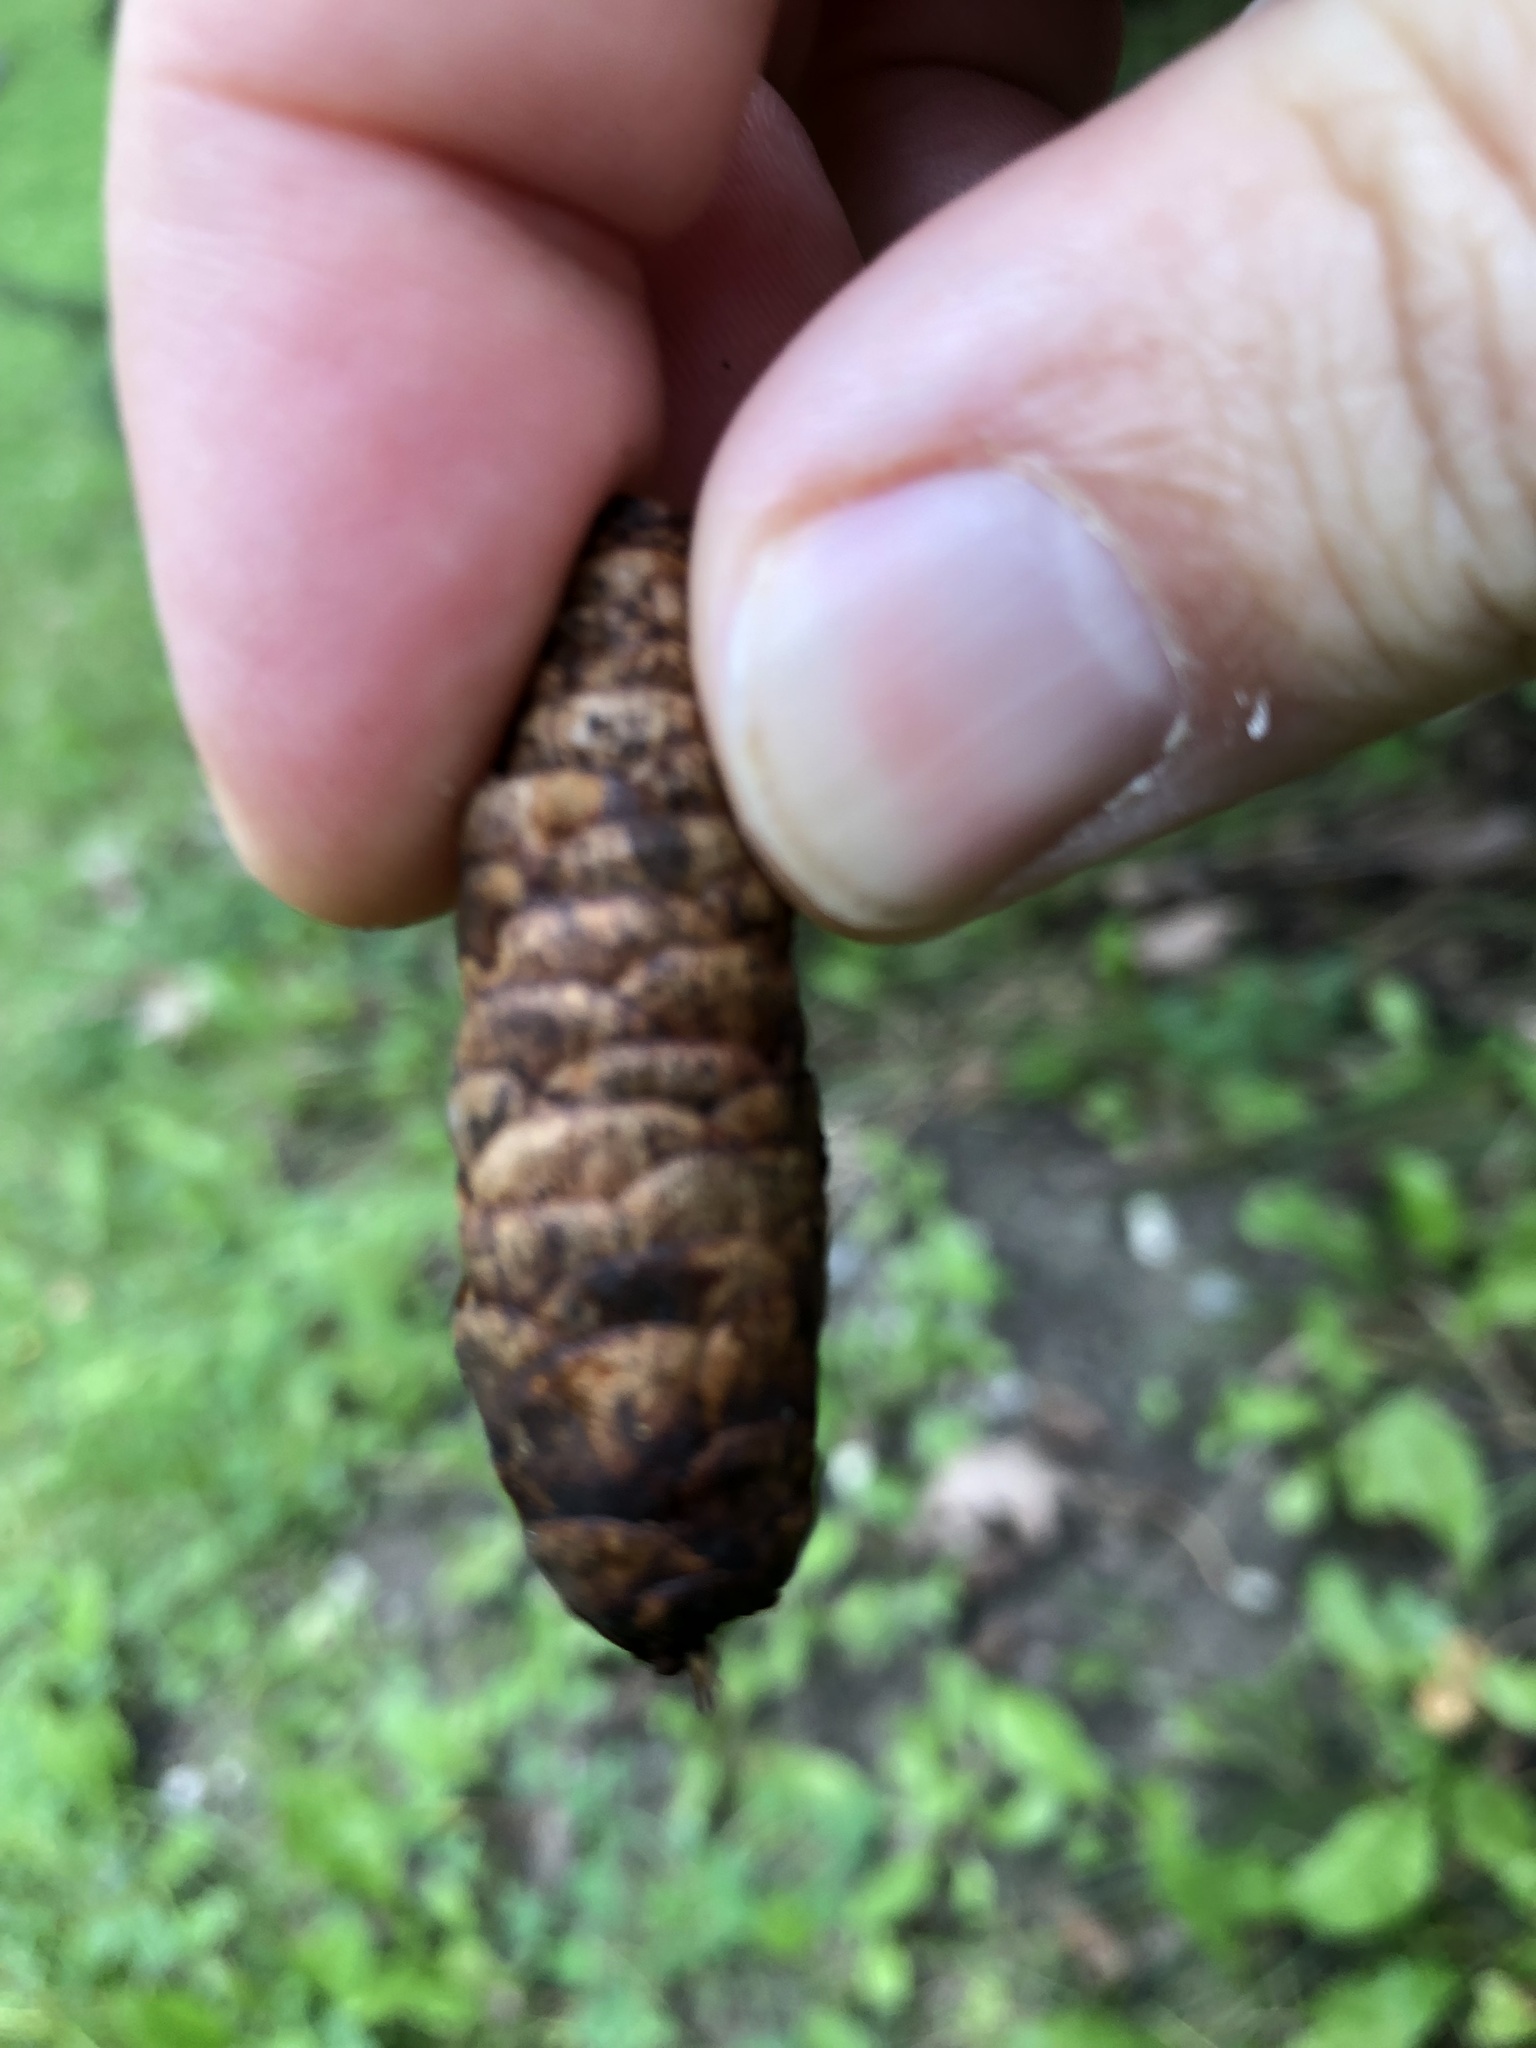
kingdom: Plantae
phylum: Tracheophyta
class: Pinopsida
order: Pinales
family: Pinaceae
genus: Picea
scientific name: Picea glauca
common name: White spruce
